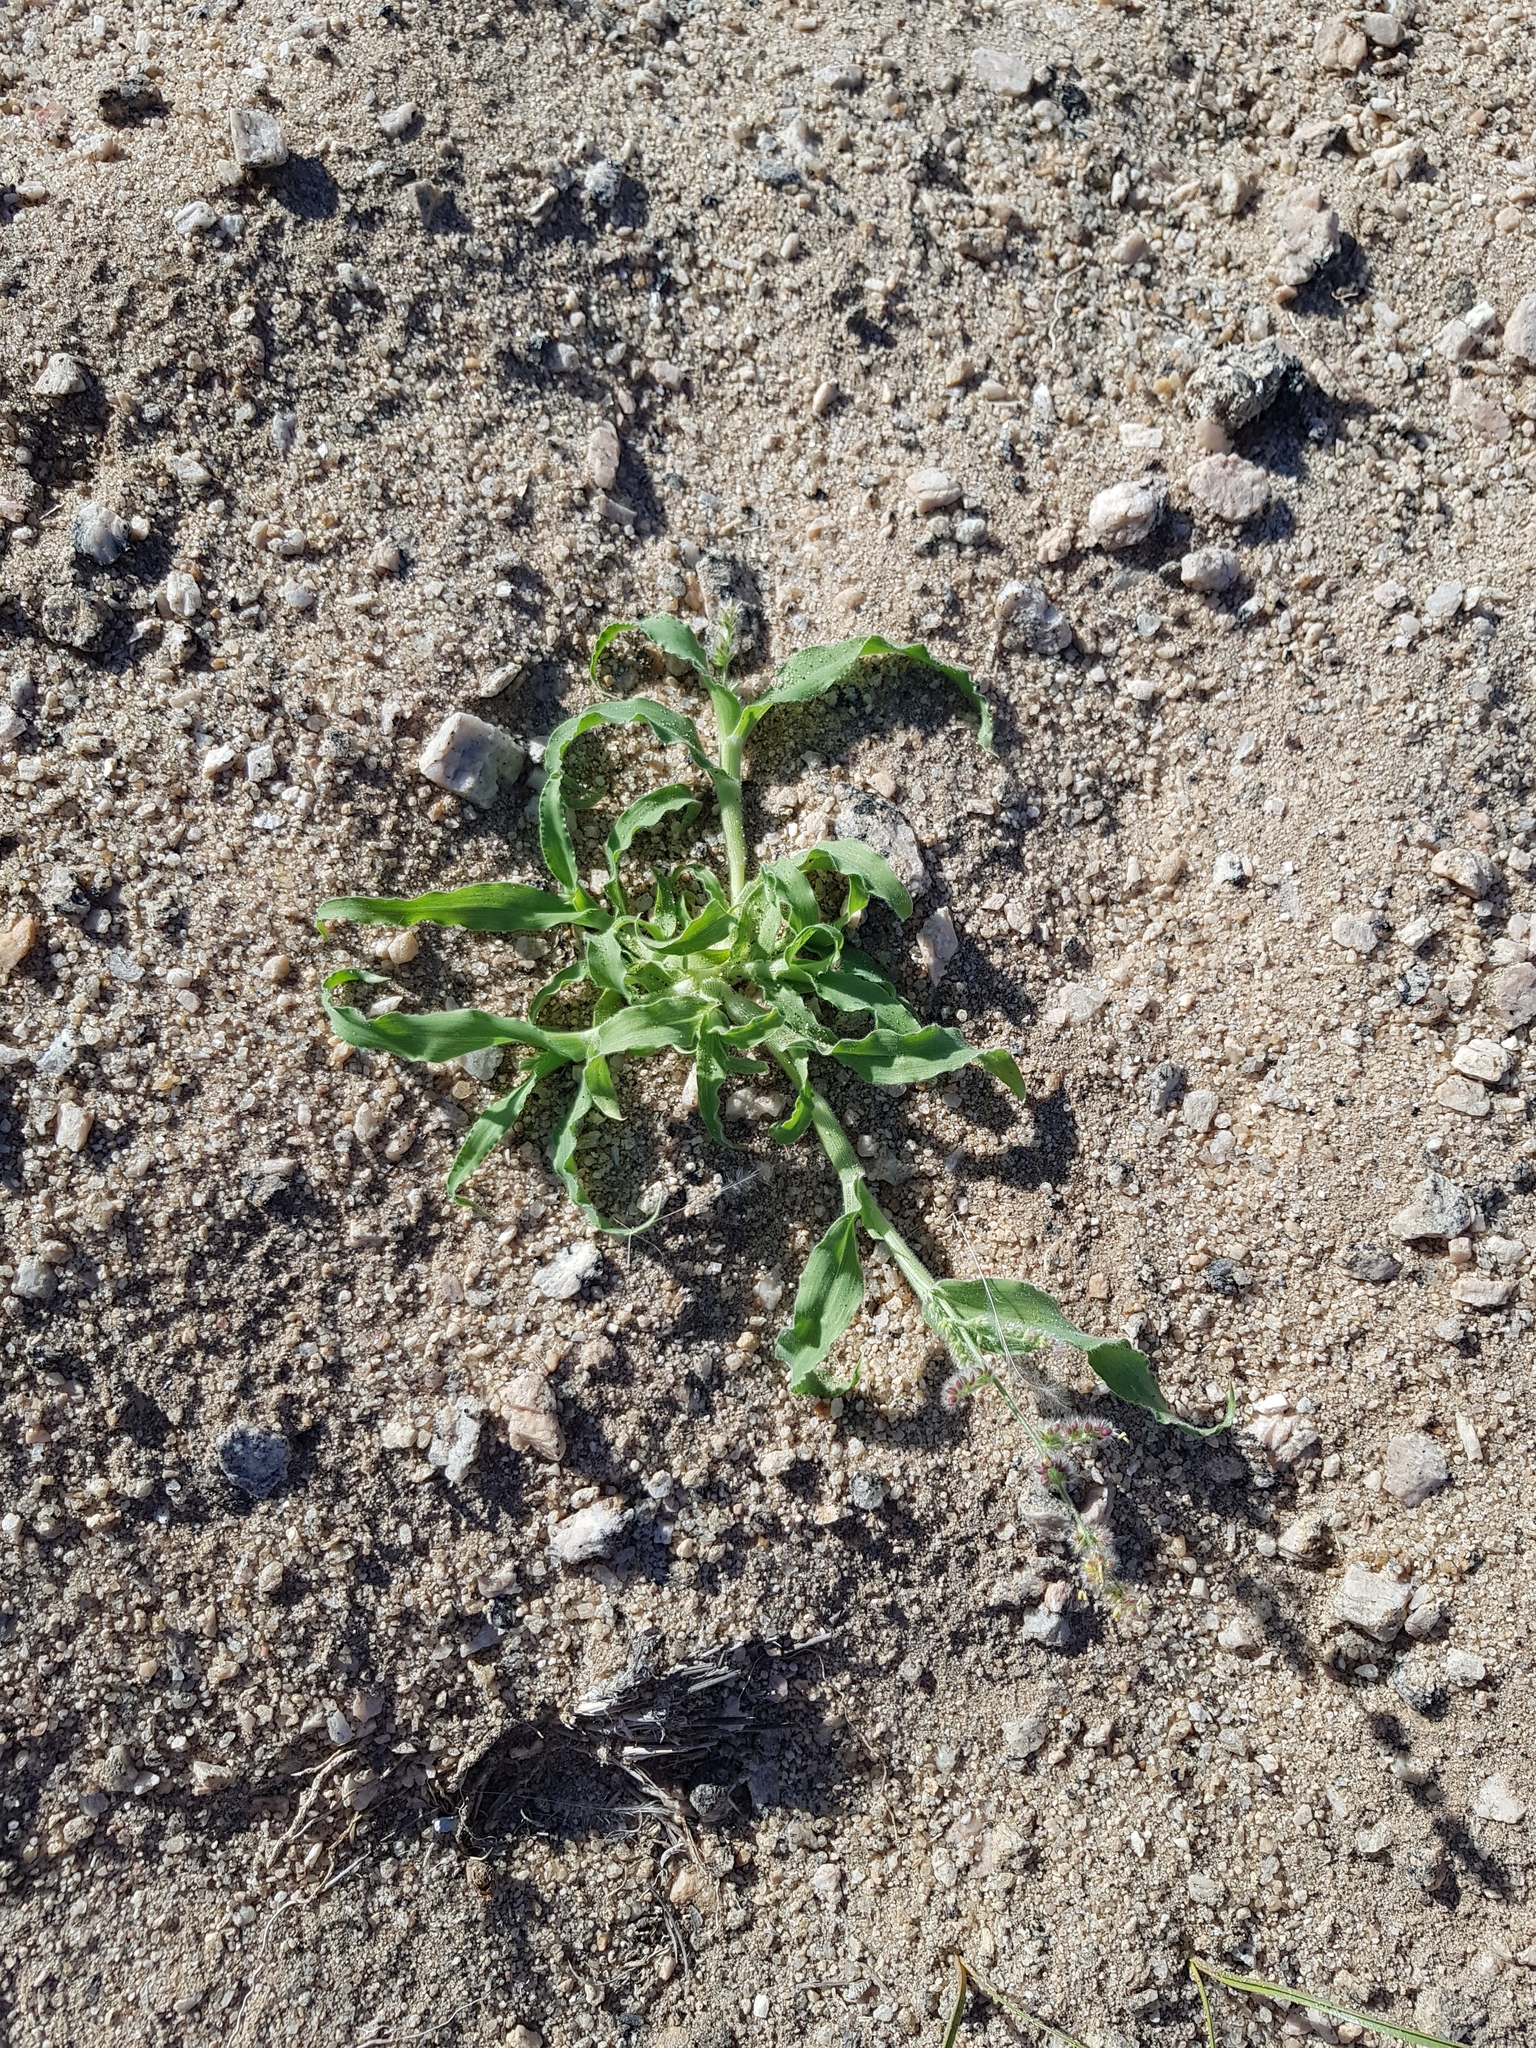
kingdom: Plantae
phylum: Tracheophyta
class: Liliopsida
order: Poales
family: Poaceae
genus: Urochloa
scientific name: Urochloa Brachiaria glomerata
